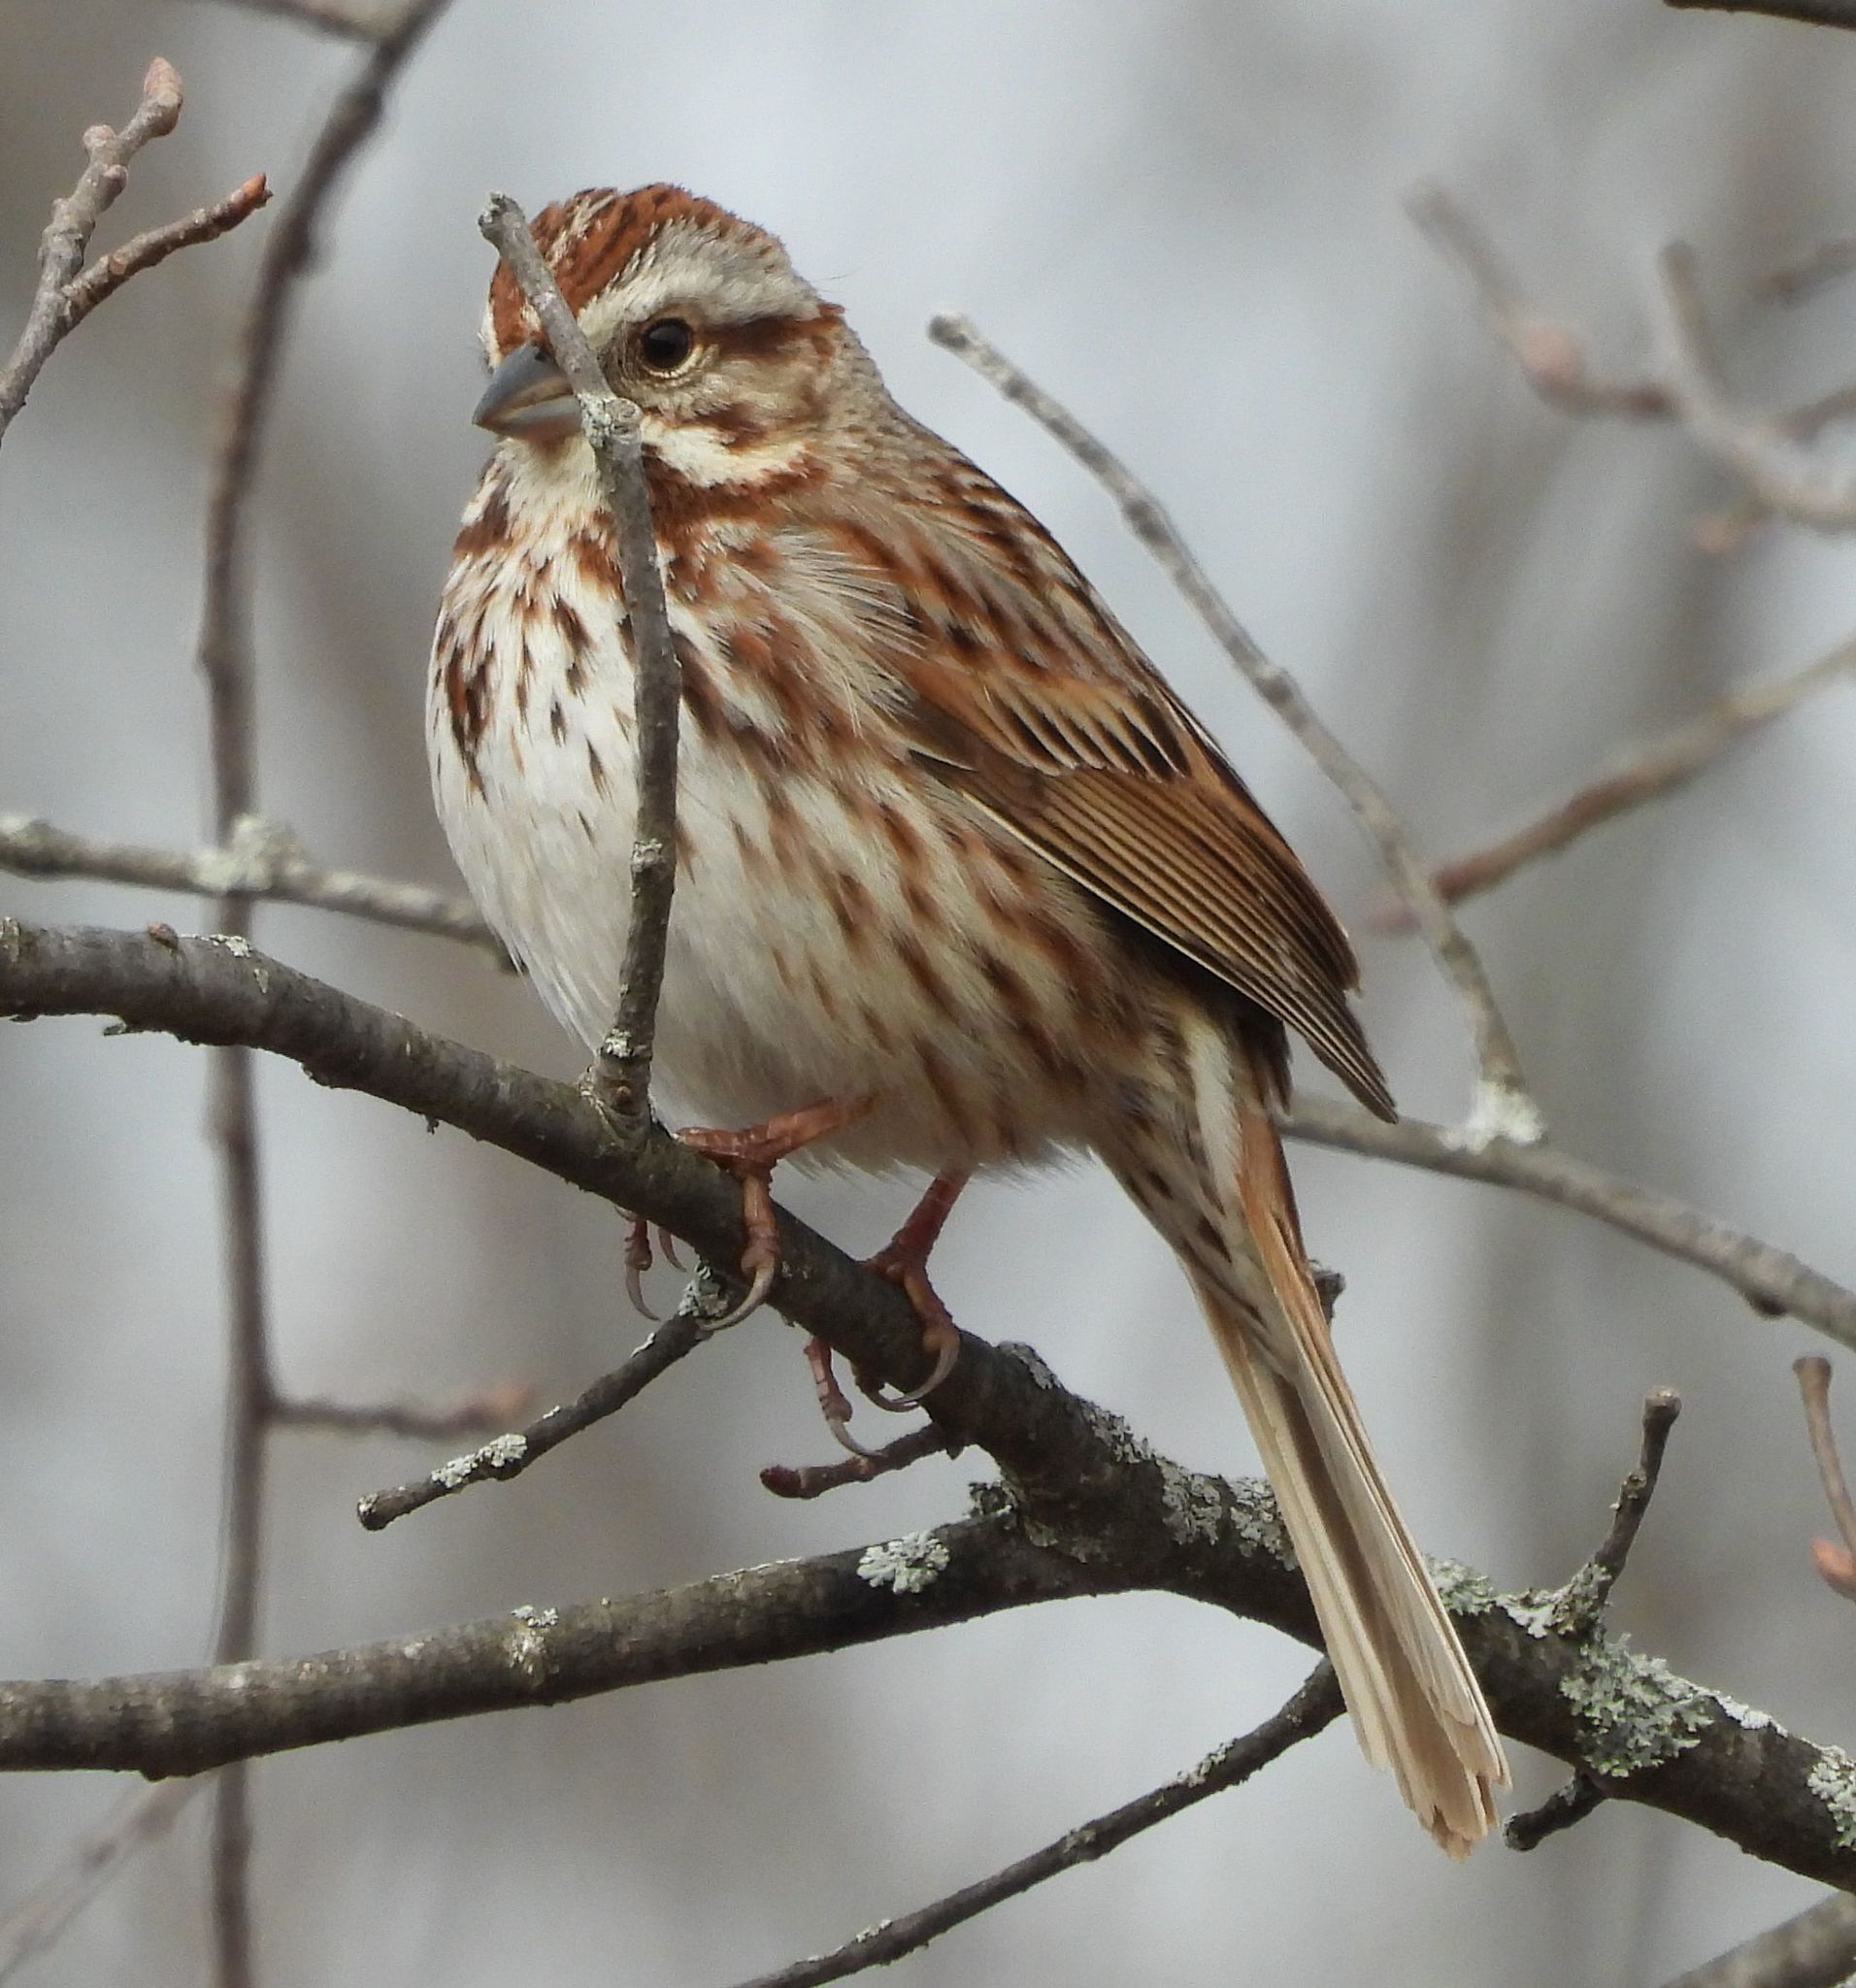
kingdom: Animalia
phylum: Chordata
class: Aves
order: Passeriformes
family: Passerellidae
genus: Melospiza
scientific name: Melospiza melodia
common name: Song sparrow
